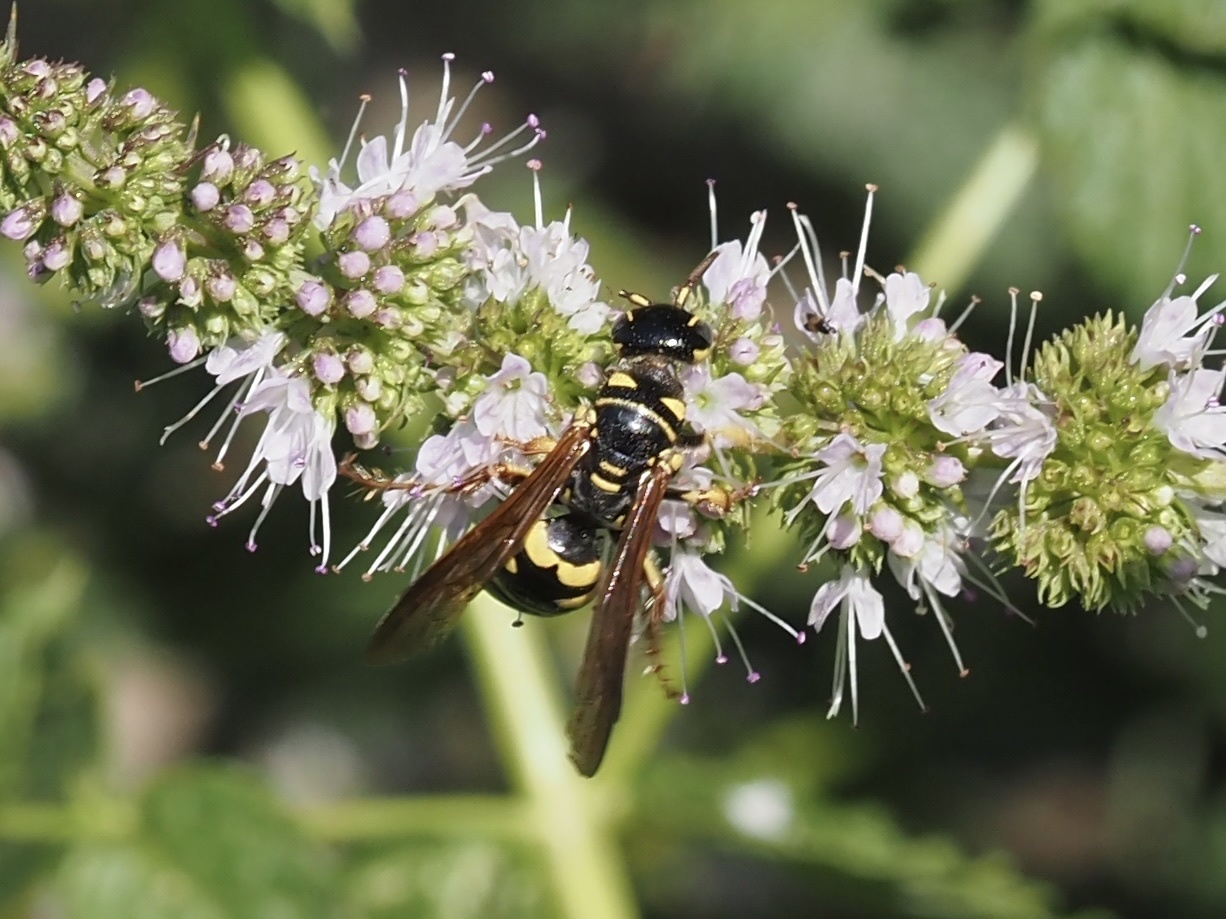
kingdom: Animalia
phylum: Arthropoda
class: Insecta
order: Hymenoptera
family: Tiphiidae
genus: Myzinum
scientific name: Myzinum quinquecinctum
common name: Five-banded thynnid wasp
